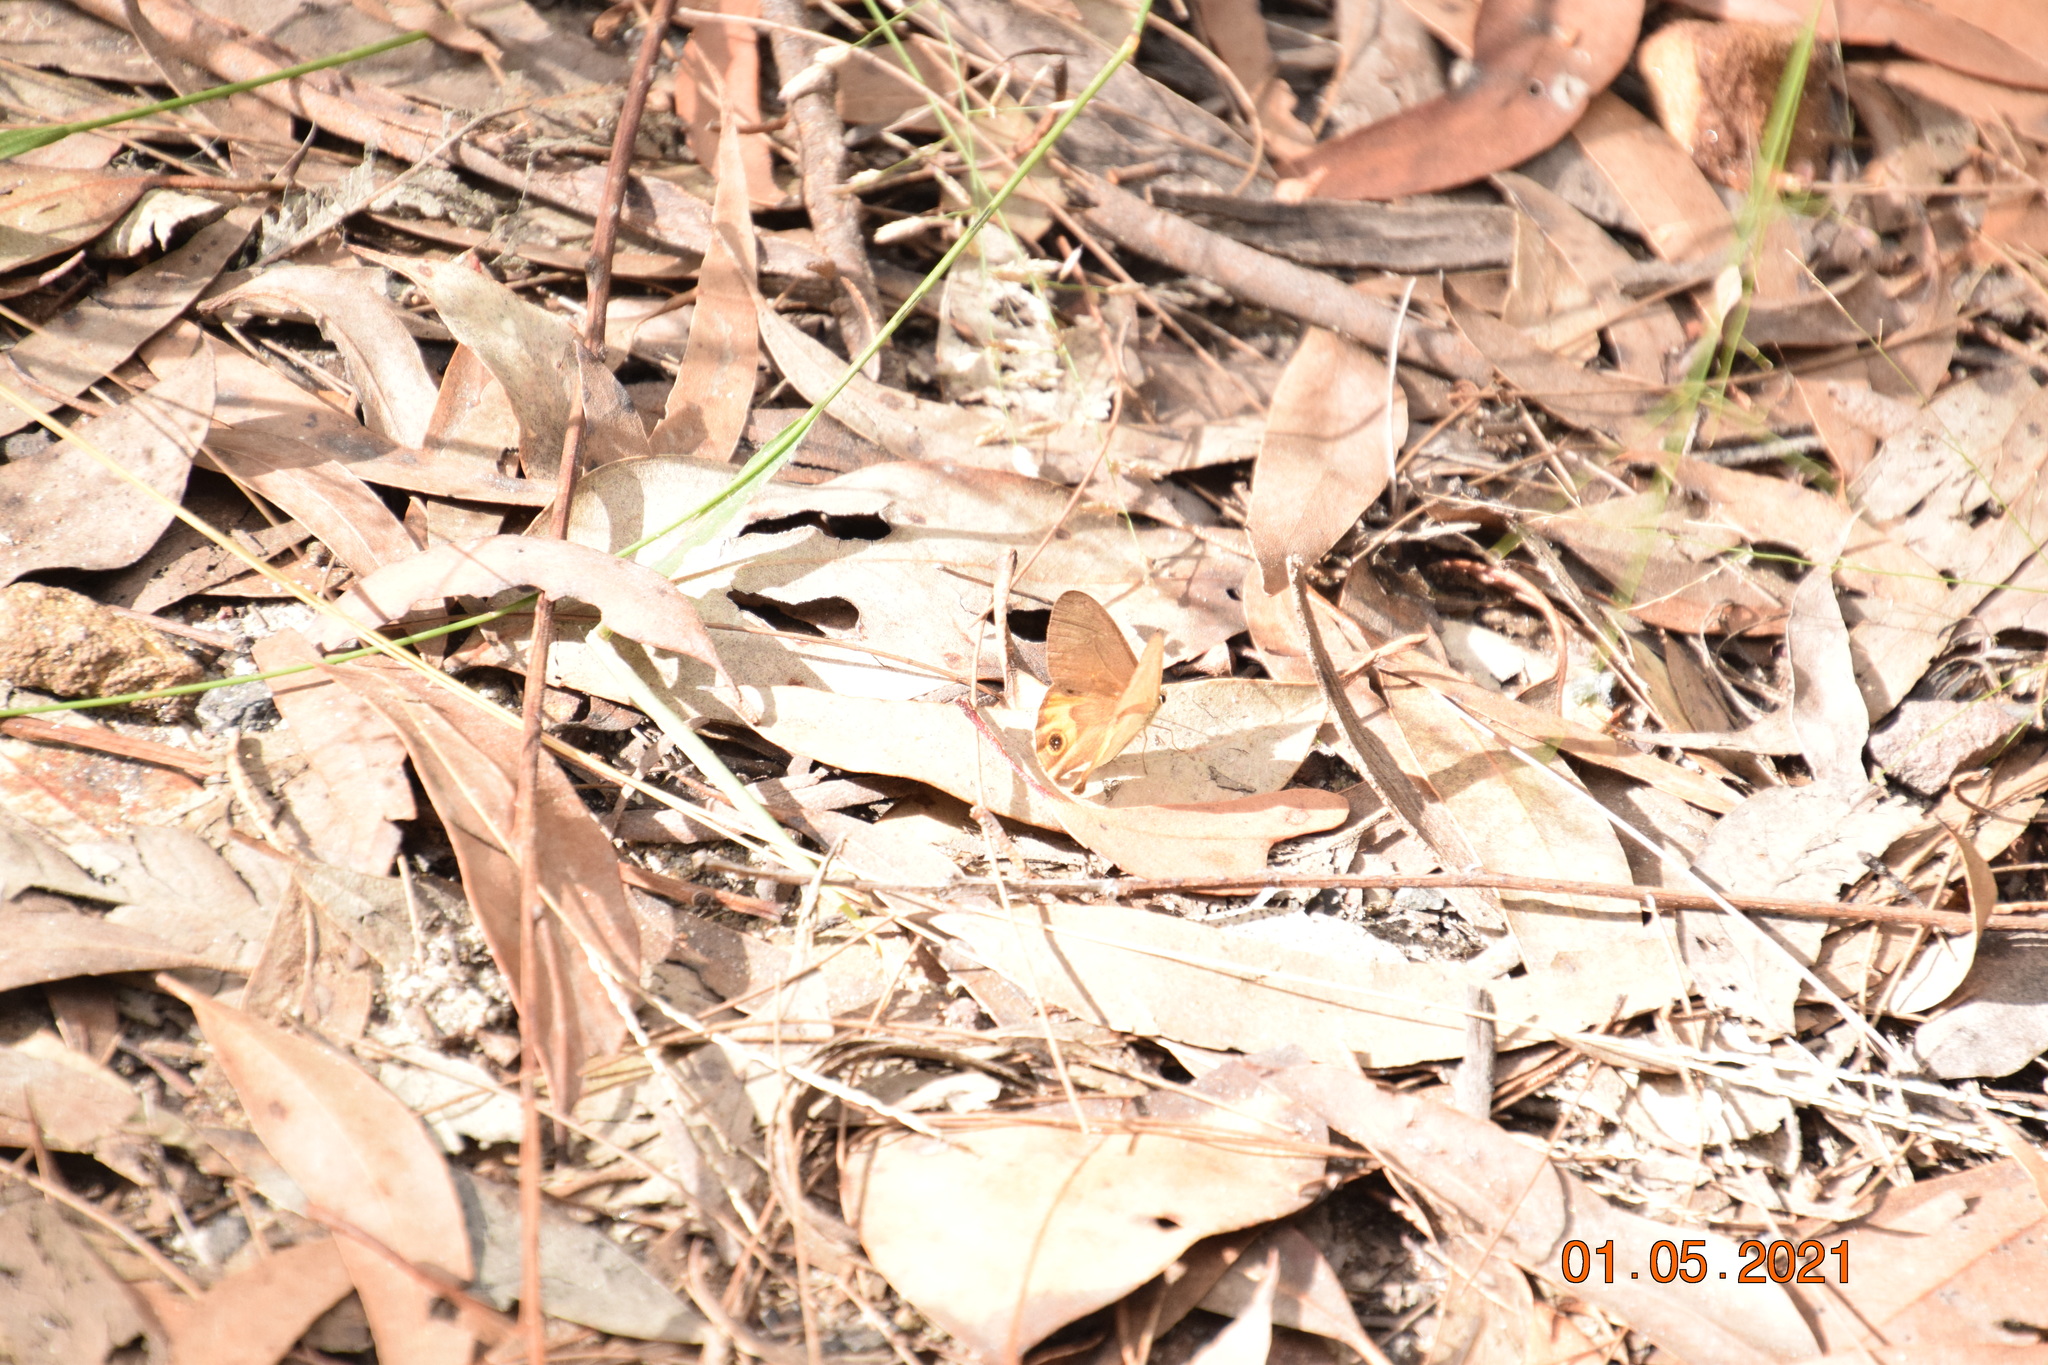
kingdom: Animalia
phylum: Arthropoda
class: Insecta
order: Lepidoptera
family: Nymphalidae
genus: Hypocysta
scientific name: Hypocysta metirius
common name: Brown ringlet
